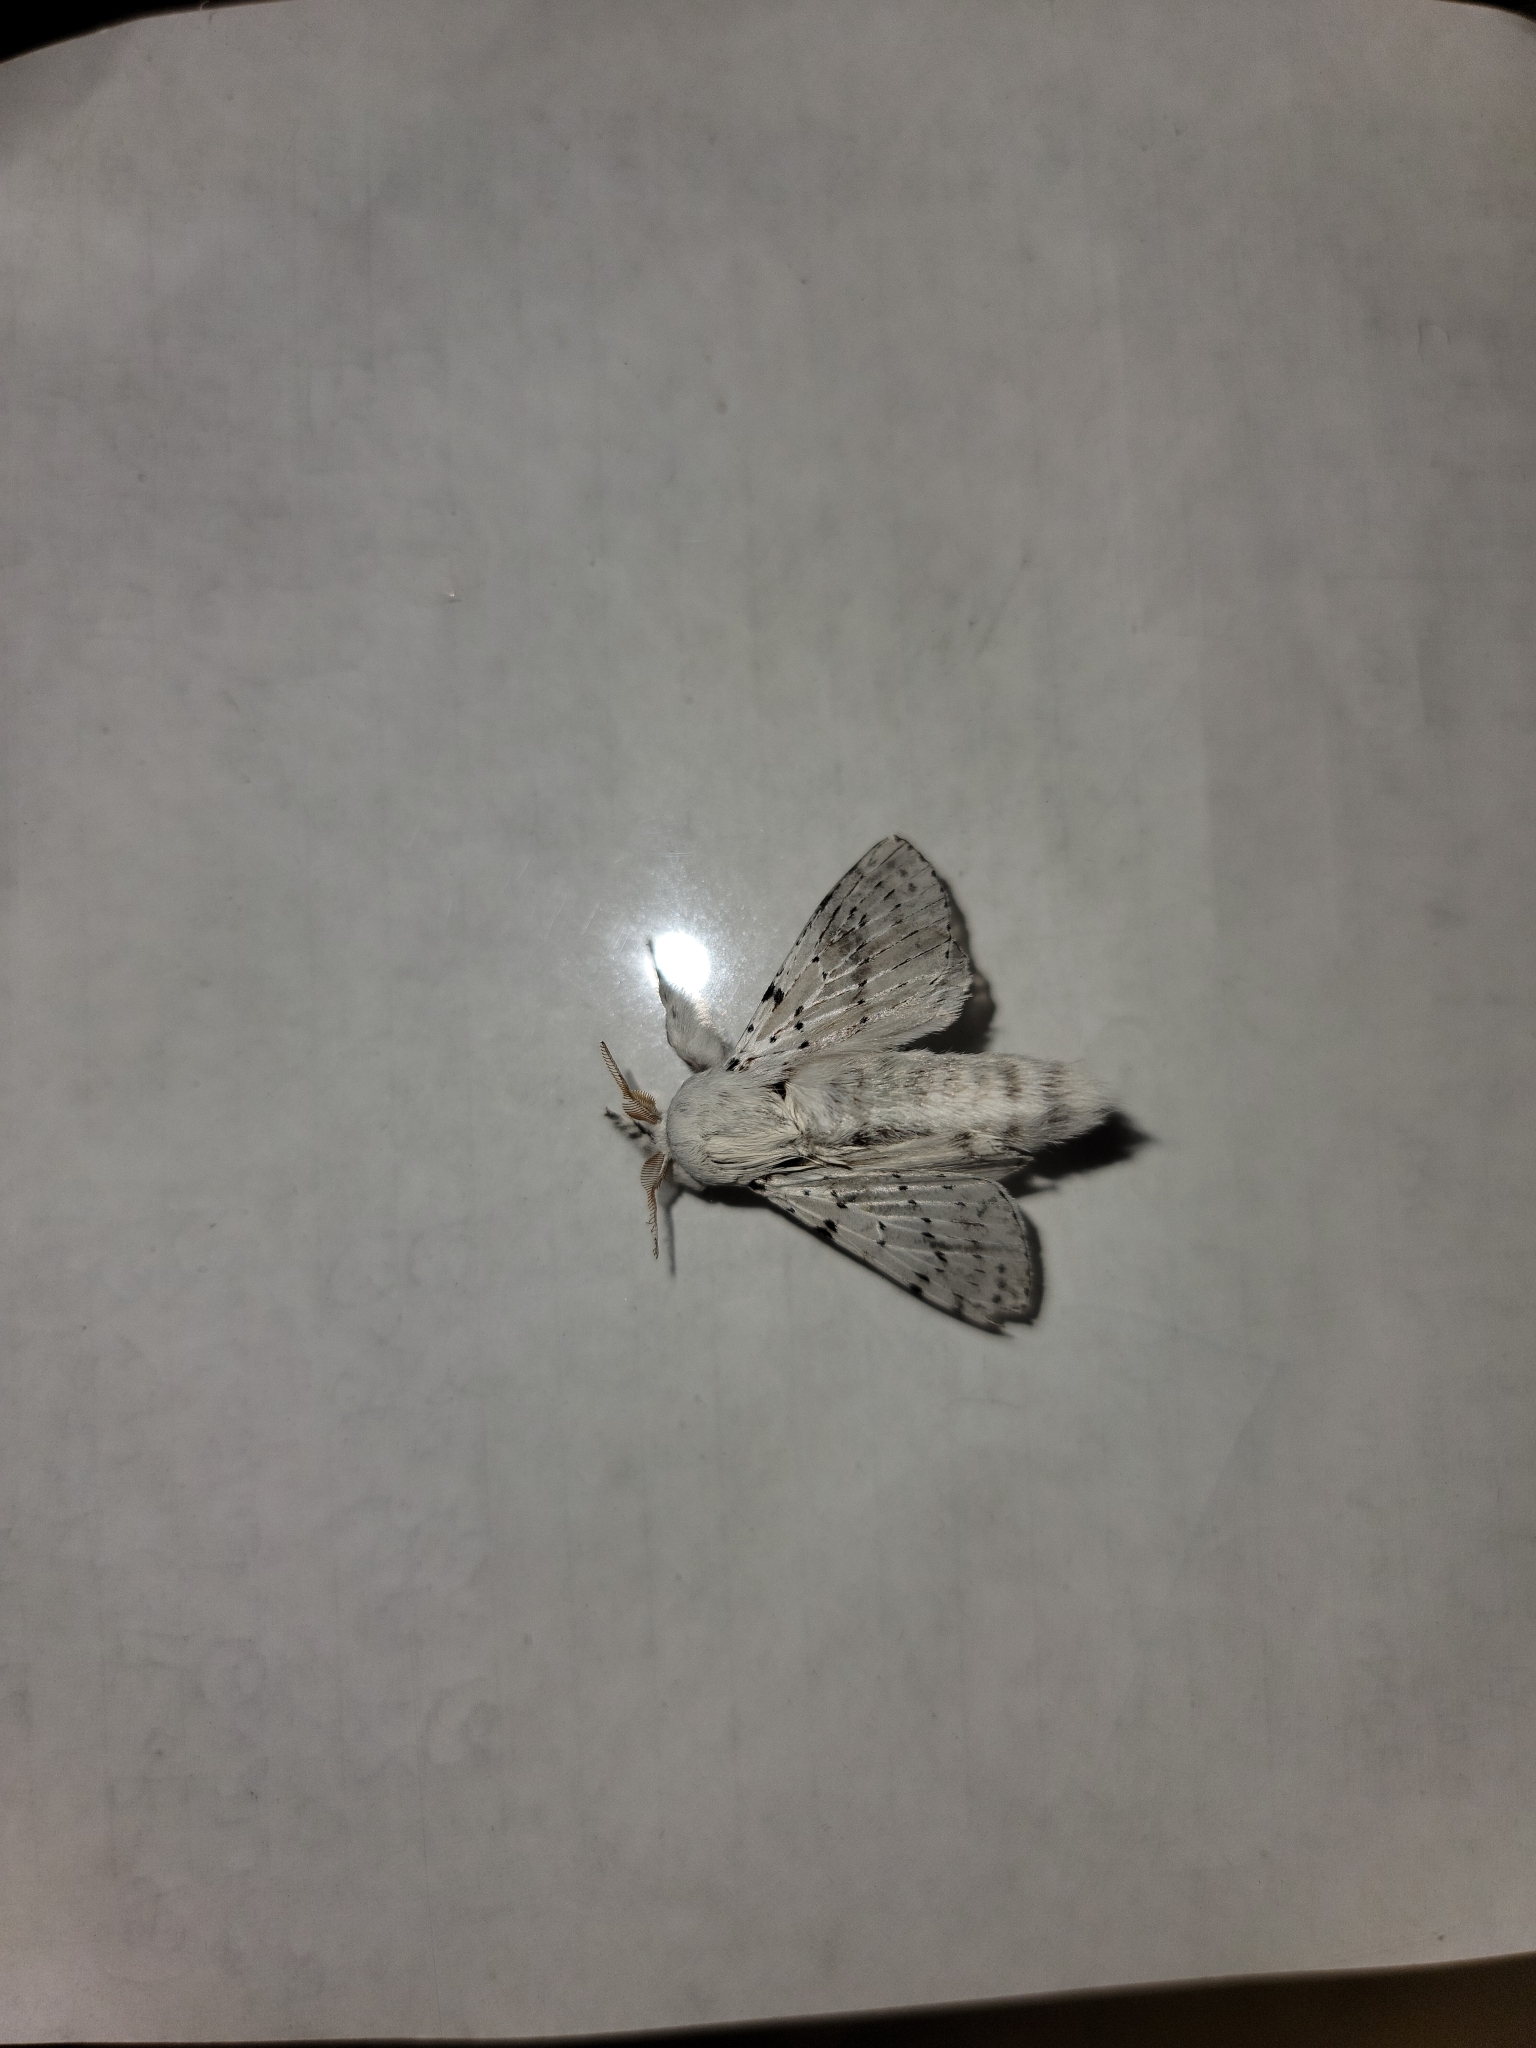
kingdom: Animalia
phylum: Arthropoda
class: Insecta
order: Lepidoptera
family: Lasiocampidae
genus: Artace
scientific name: Artace cribrarius
